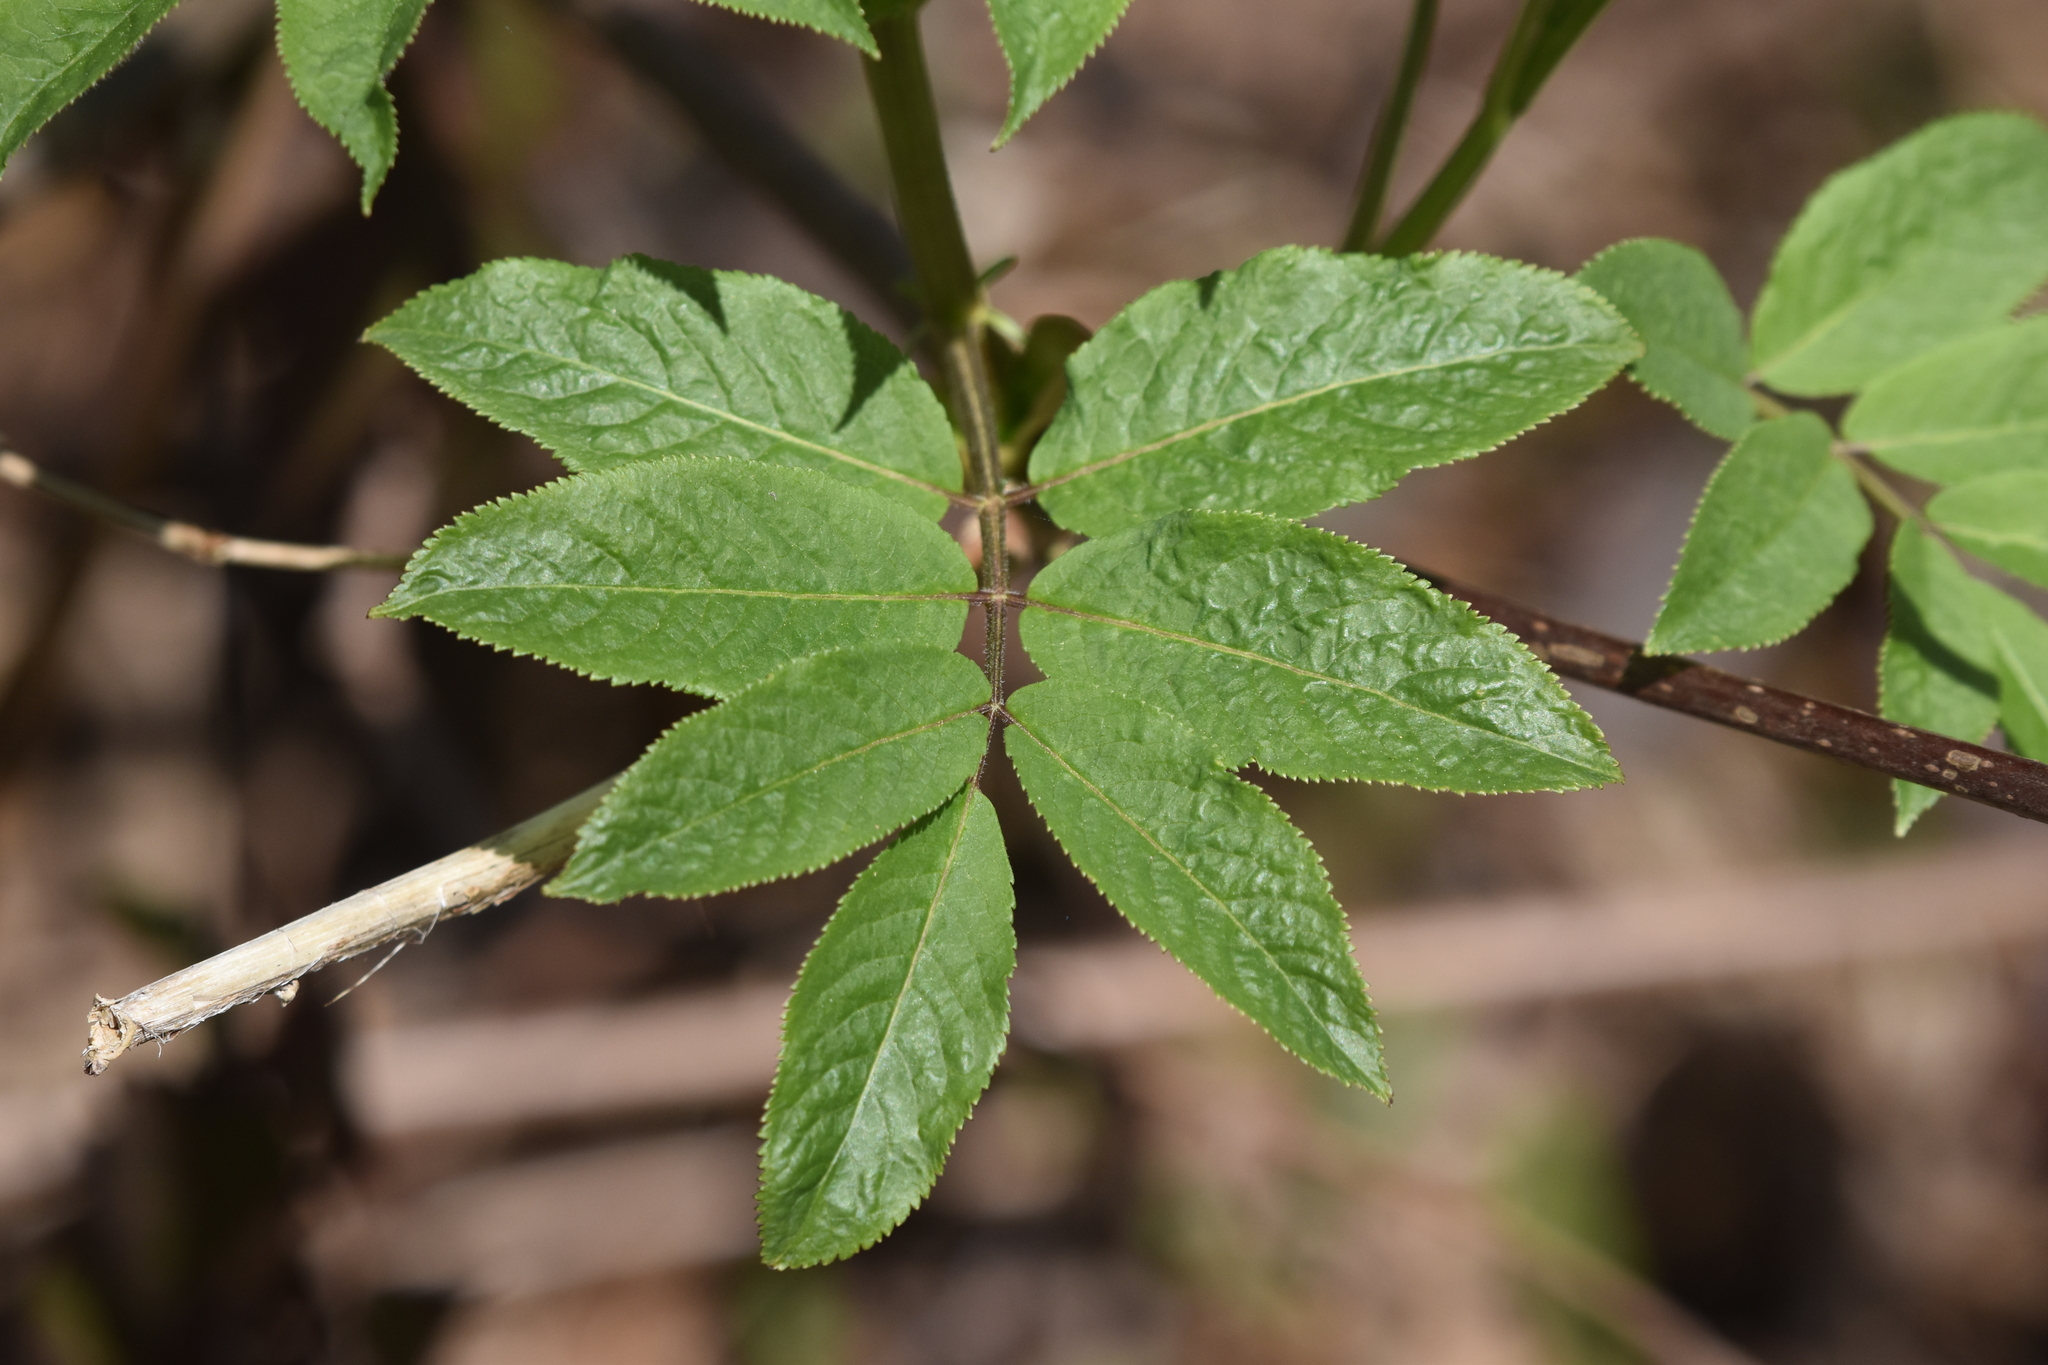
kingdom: Plantae
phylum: Tracheophyta
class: Magnoliopsida
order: Dipsacales
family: Viburnaceae
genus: Sambucus
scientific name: Sambucus racemosa
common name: Red-berried elder
